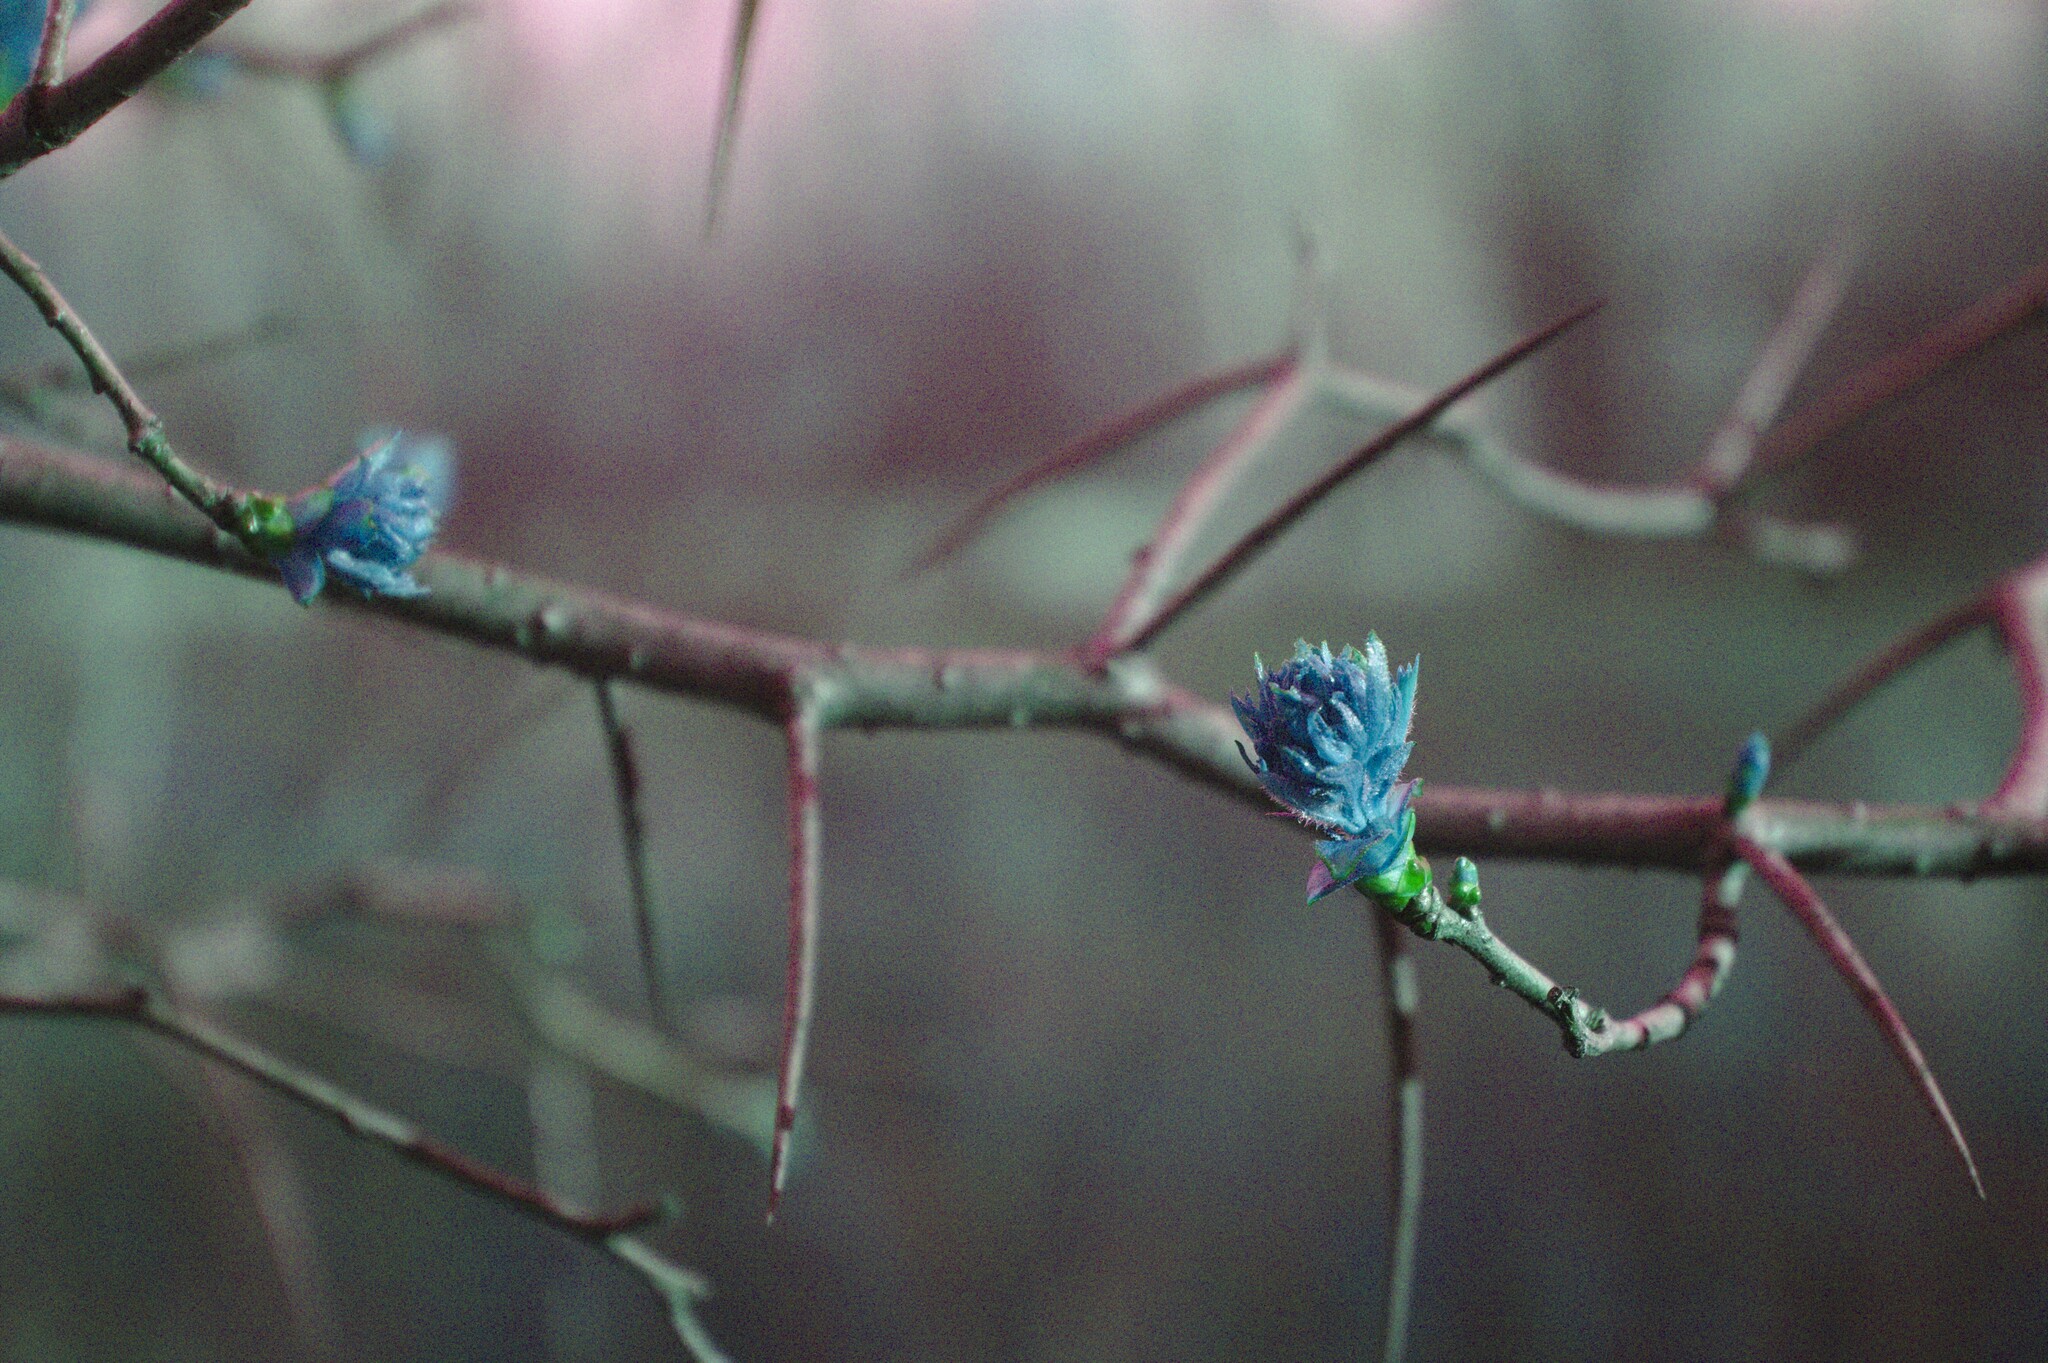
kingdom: Plantae
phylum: Tracheophyta
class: Magnoliopsida
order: Rosales
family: Rosaceae
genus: Crataegus
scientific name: Crataegus
